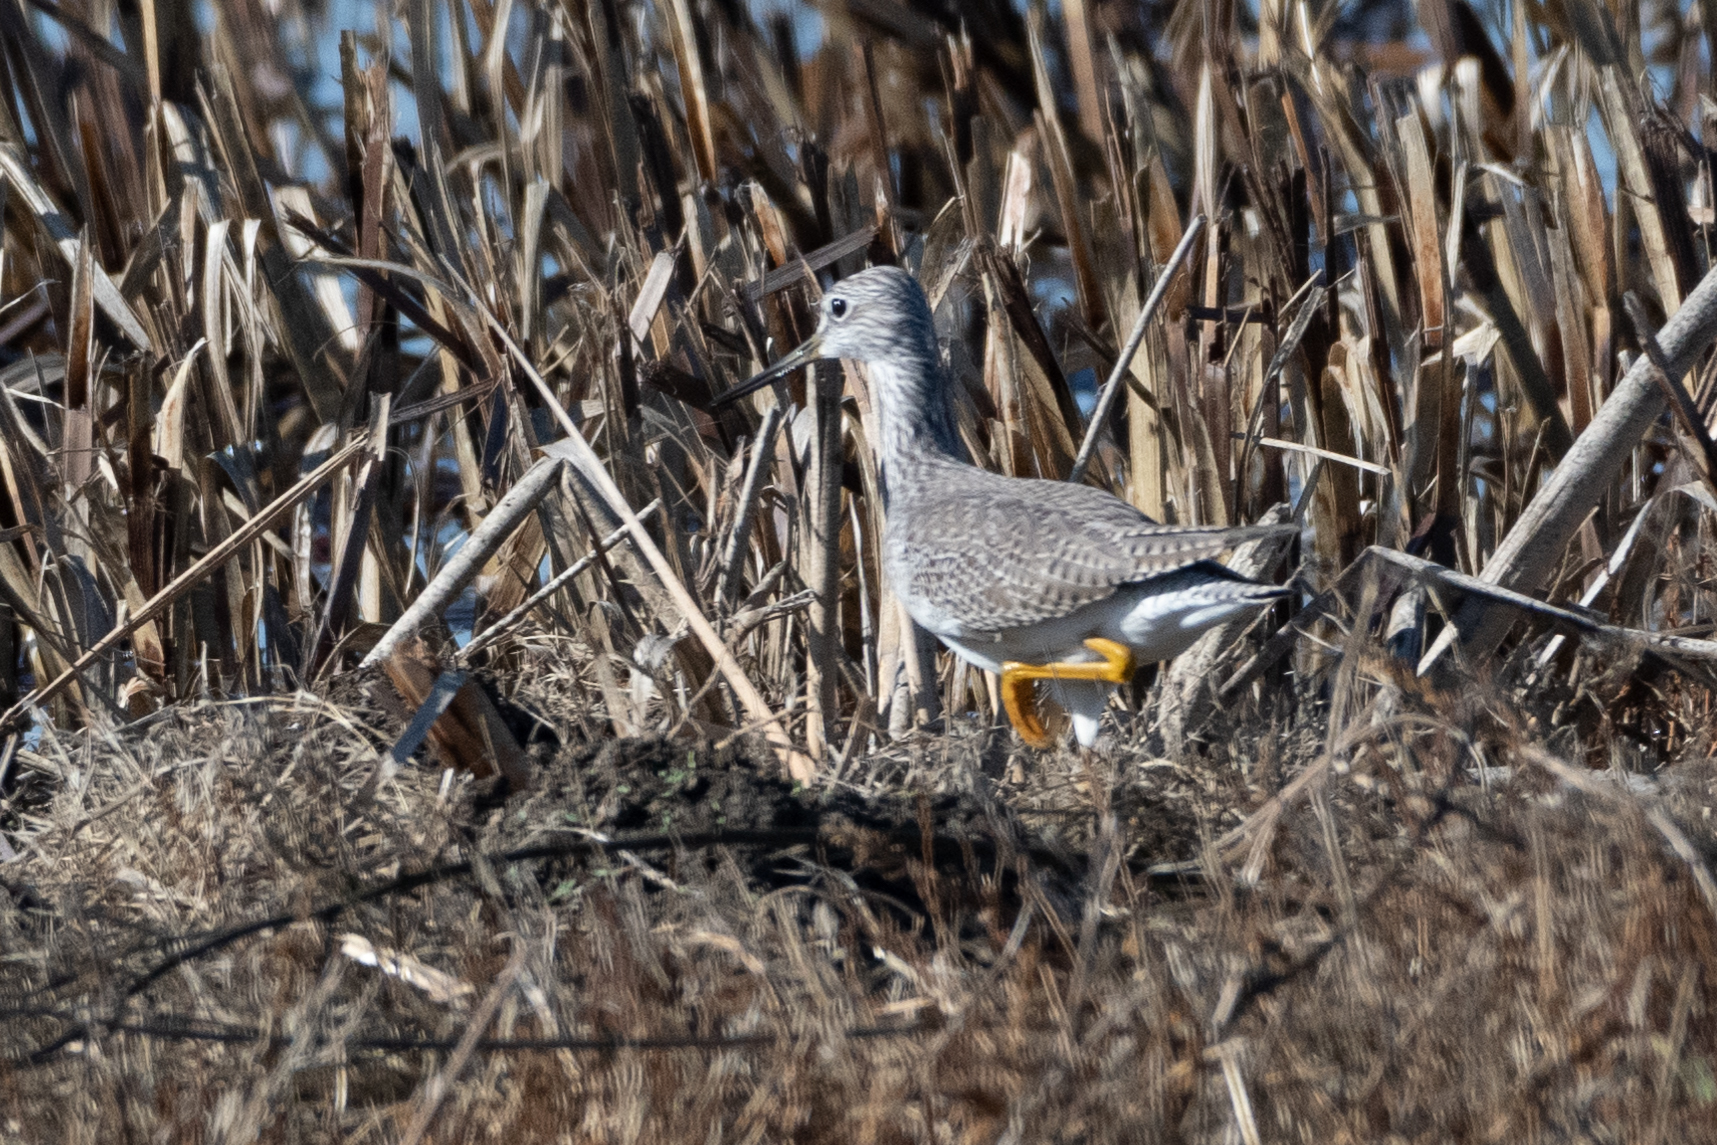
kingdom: Animalia
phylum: Chordata
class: Aves
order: Charadriiformes
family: Scolopacidae
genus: Tringa
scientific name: Tringa melanoleuca
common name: Greater yellowlegs
